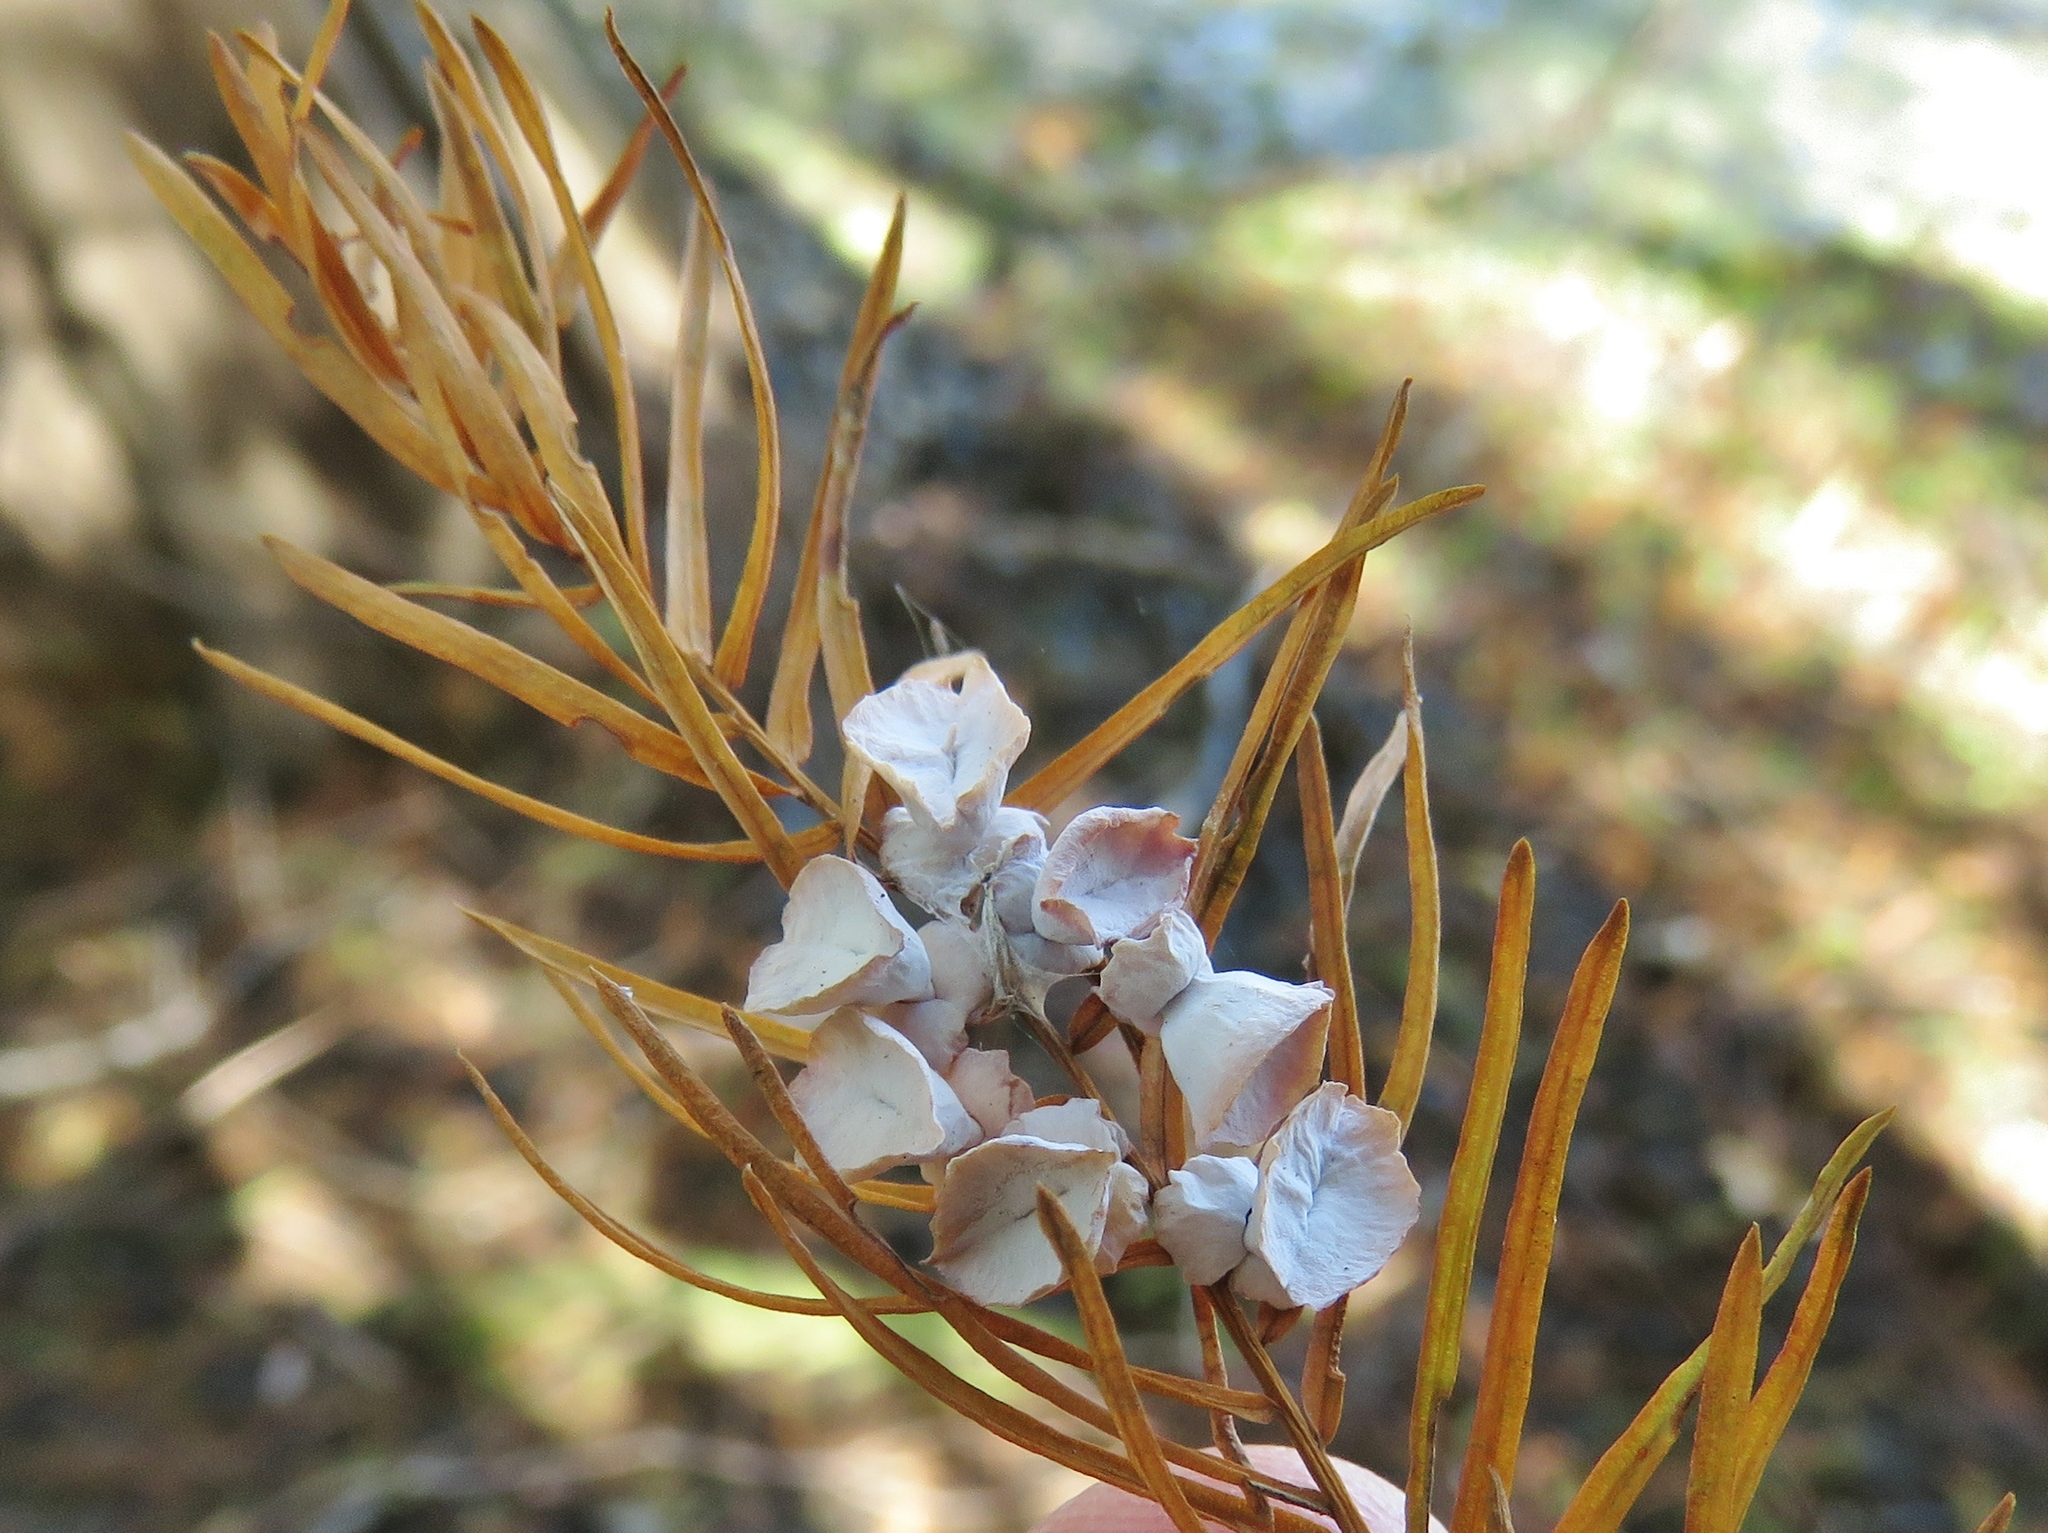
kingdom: Animalia
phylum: Arthropoda
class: Insecta
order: Diptera
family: Cecidomyiidae
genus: Taxodiomyia
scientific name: Taxodiomyia cupressi
